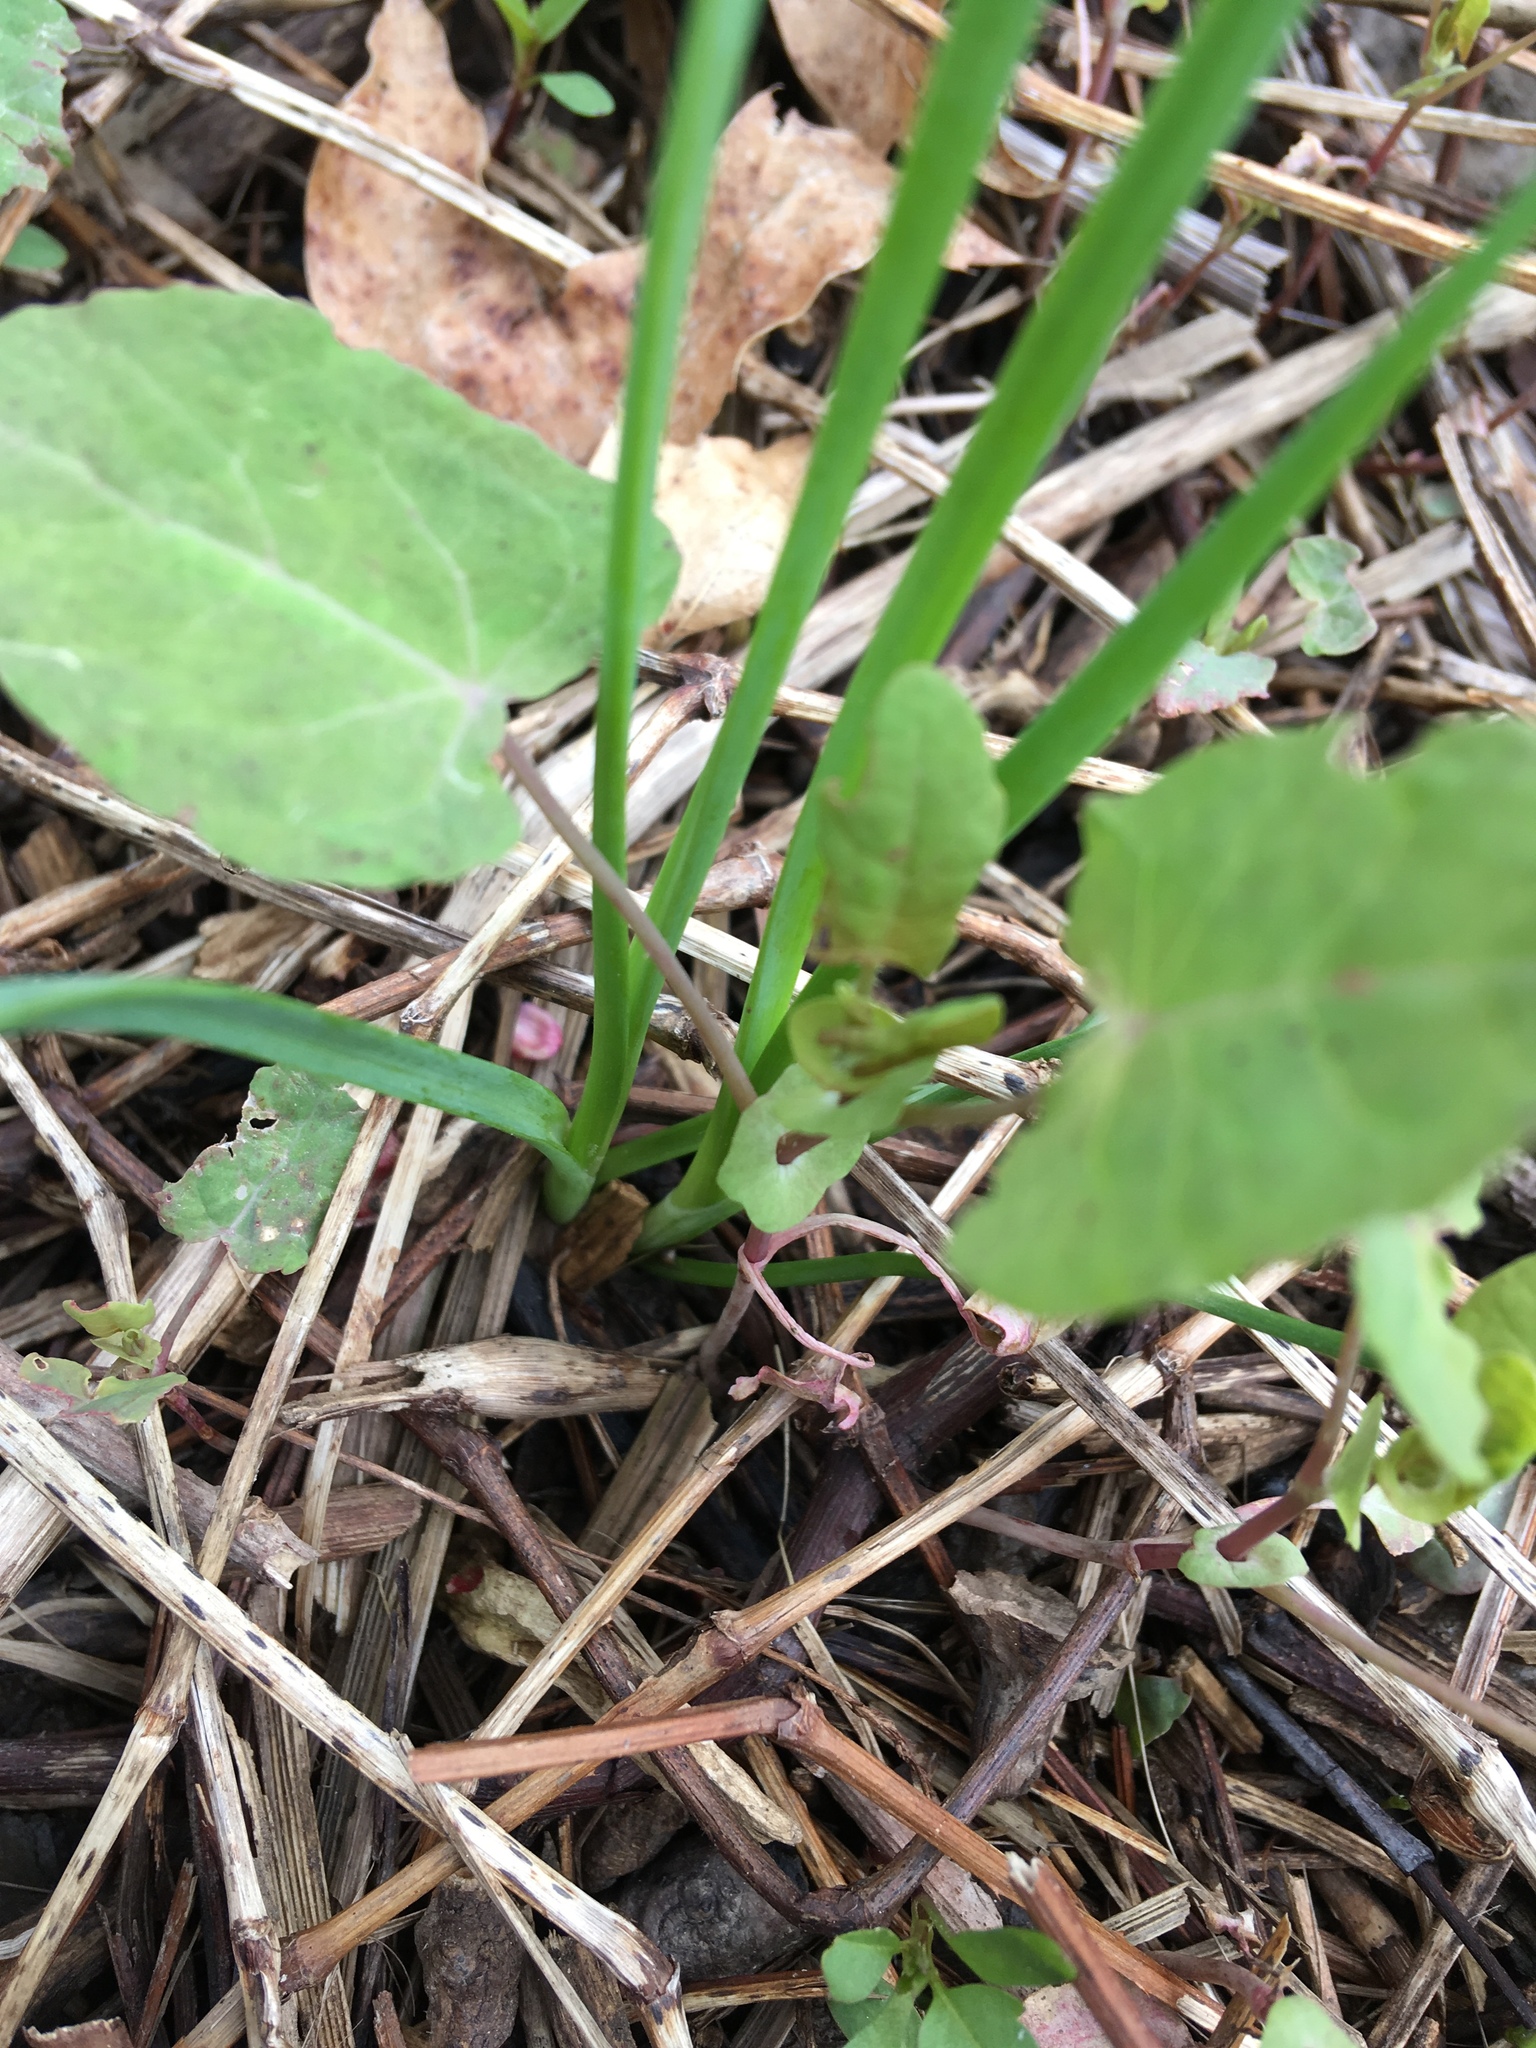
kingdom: Plantae
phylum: Tracheophyta
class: Magnoliopsida
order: Caryophyllales
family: Polygonaceae
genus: Persicaria
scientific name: Persicaria perfoliata
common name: Asiatic tearthumb
